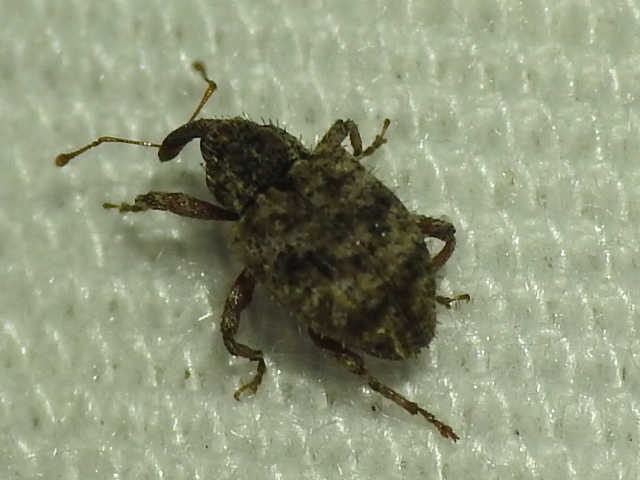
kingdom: Animalia
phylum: Arthropoda
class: Insecta
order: Coleoptera
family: Curculionidae
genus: Conotrachelus
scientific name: Conotrachelus recessus
